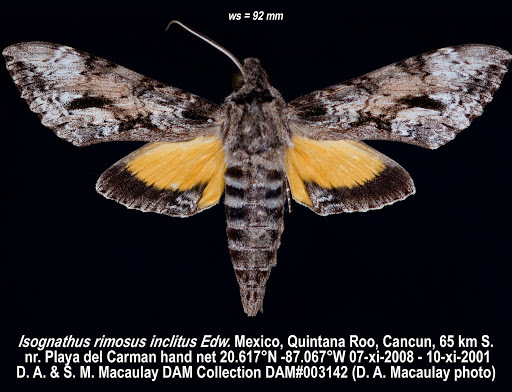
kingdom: Animalia
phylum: Arthropoda
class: Insecta
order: Lepidoptera
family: Sphingidae
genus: Isognathus
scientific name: Isognathus rimosa
